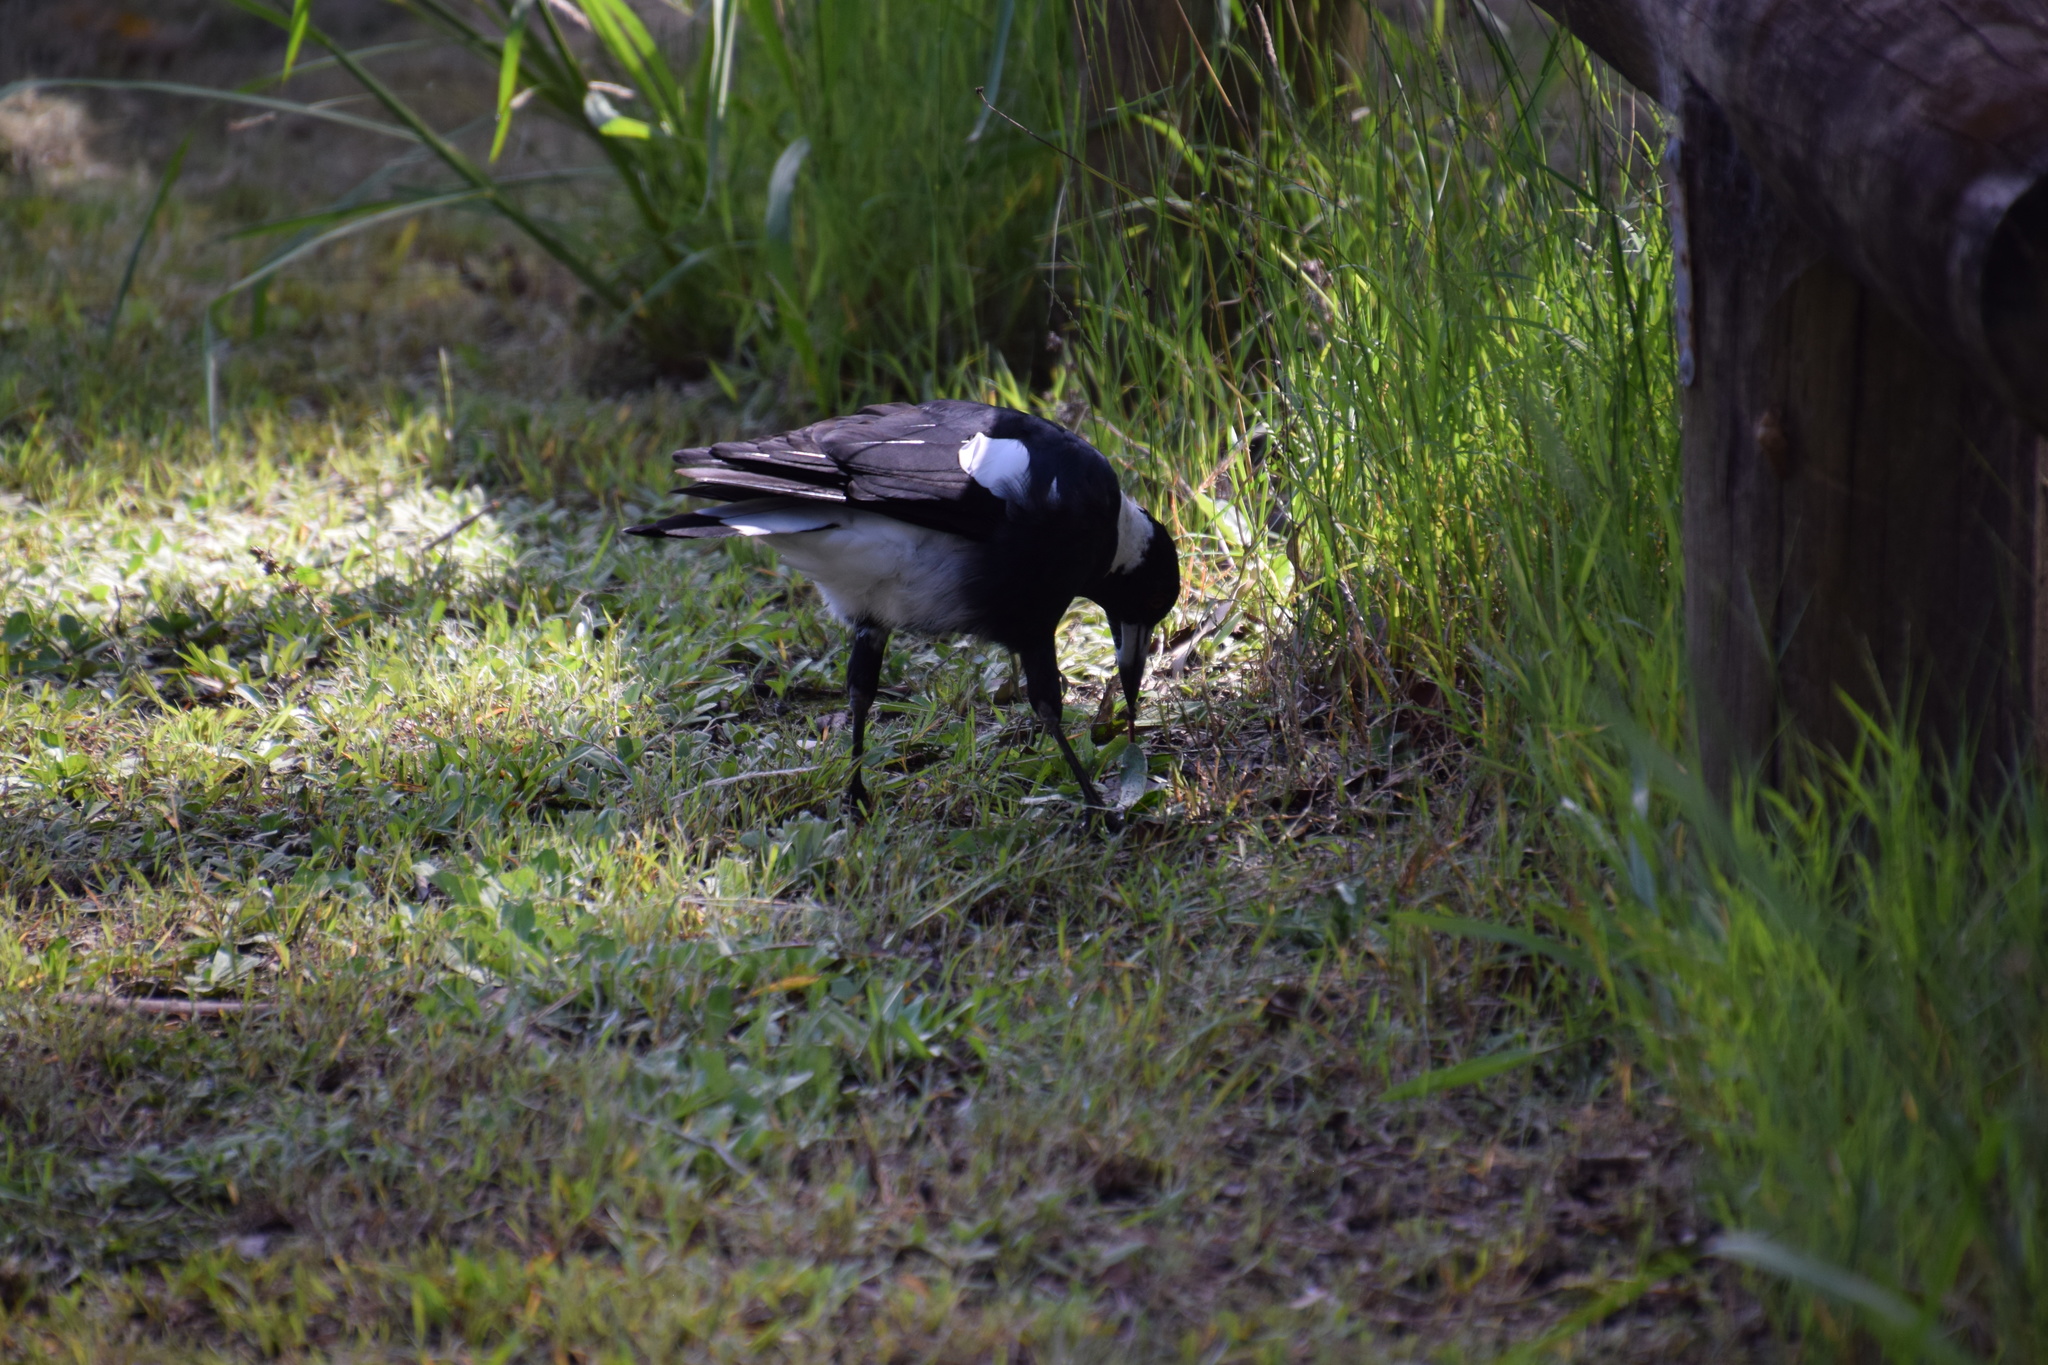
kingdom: Animalia
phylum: Chordata
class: Aves
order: Passeriformes
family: Cracticidae
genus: Gymnorhina
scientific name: Gymnorhina tibicen
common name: Australian magpie
